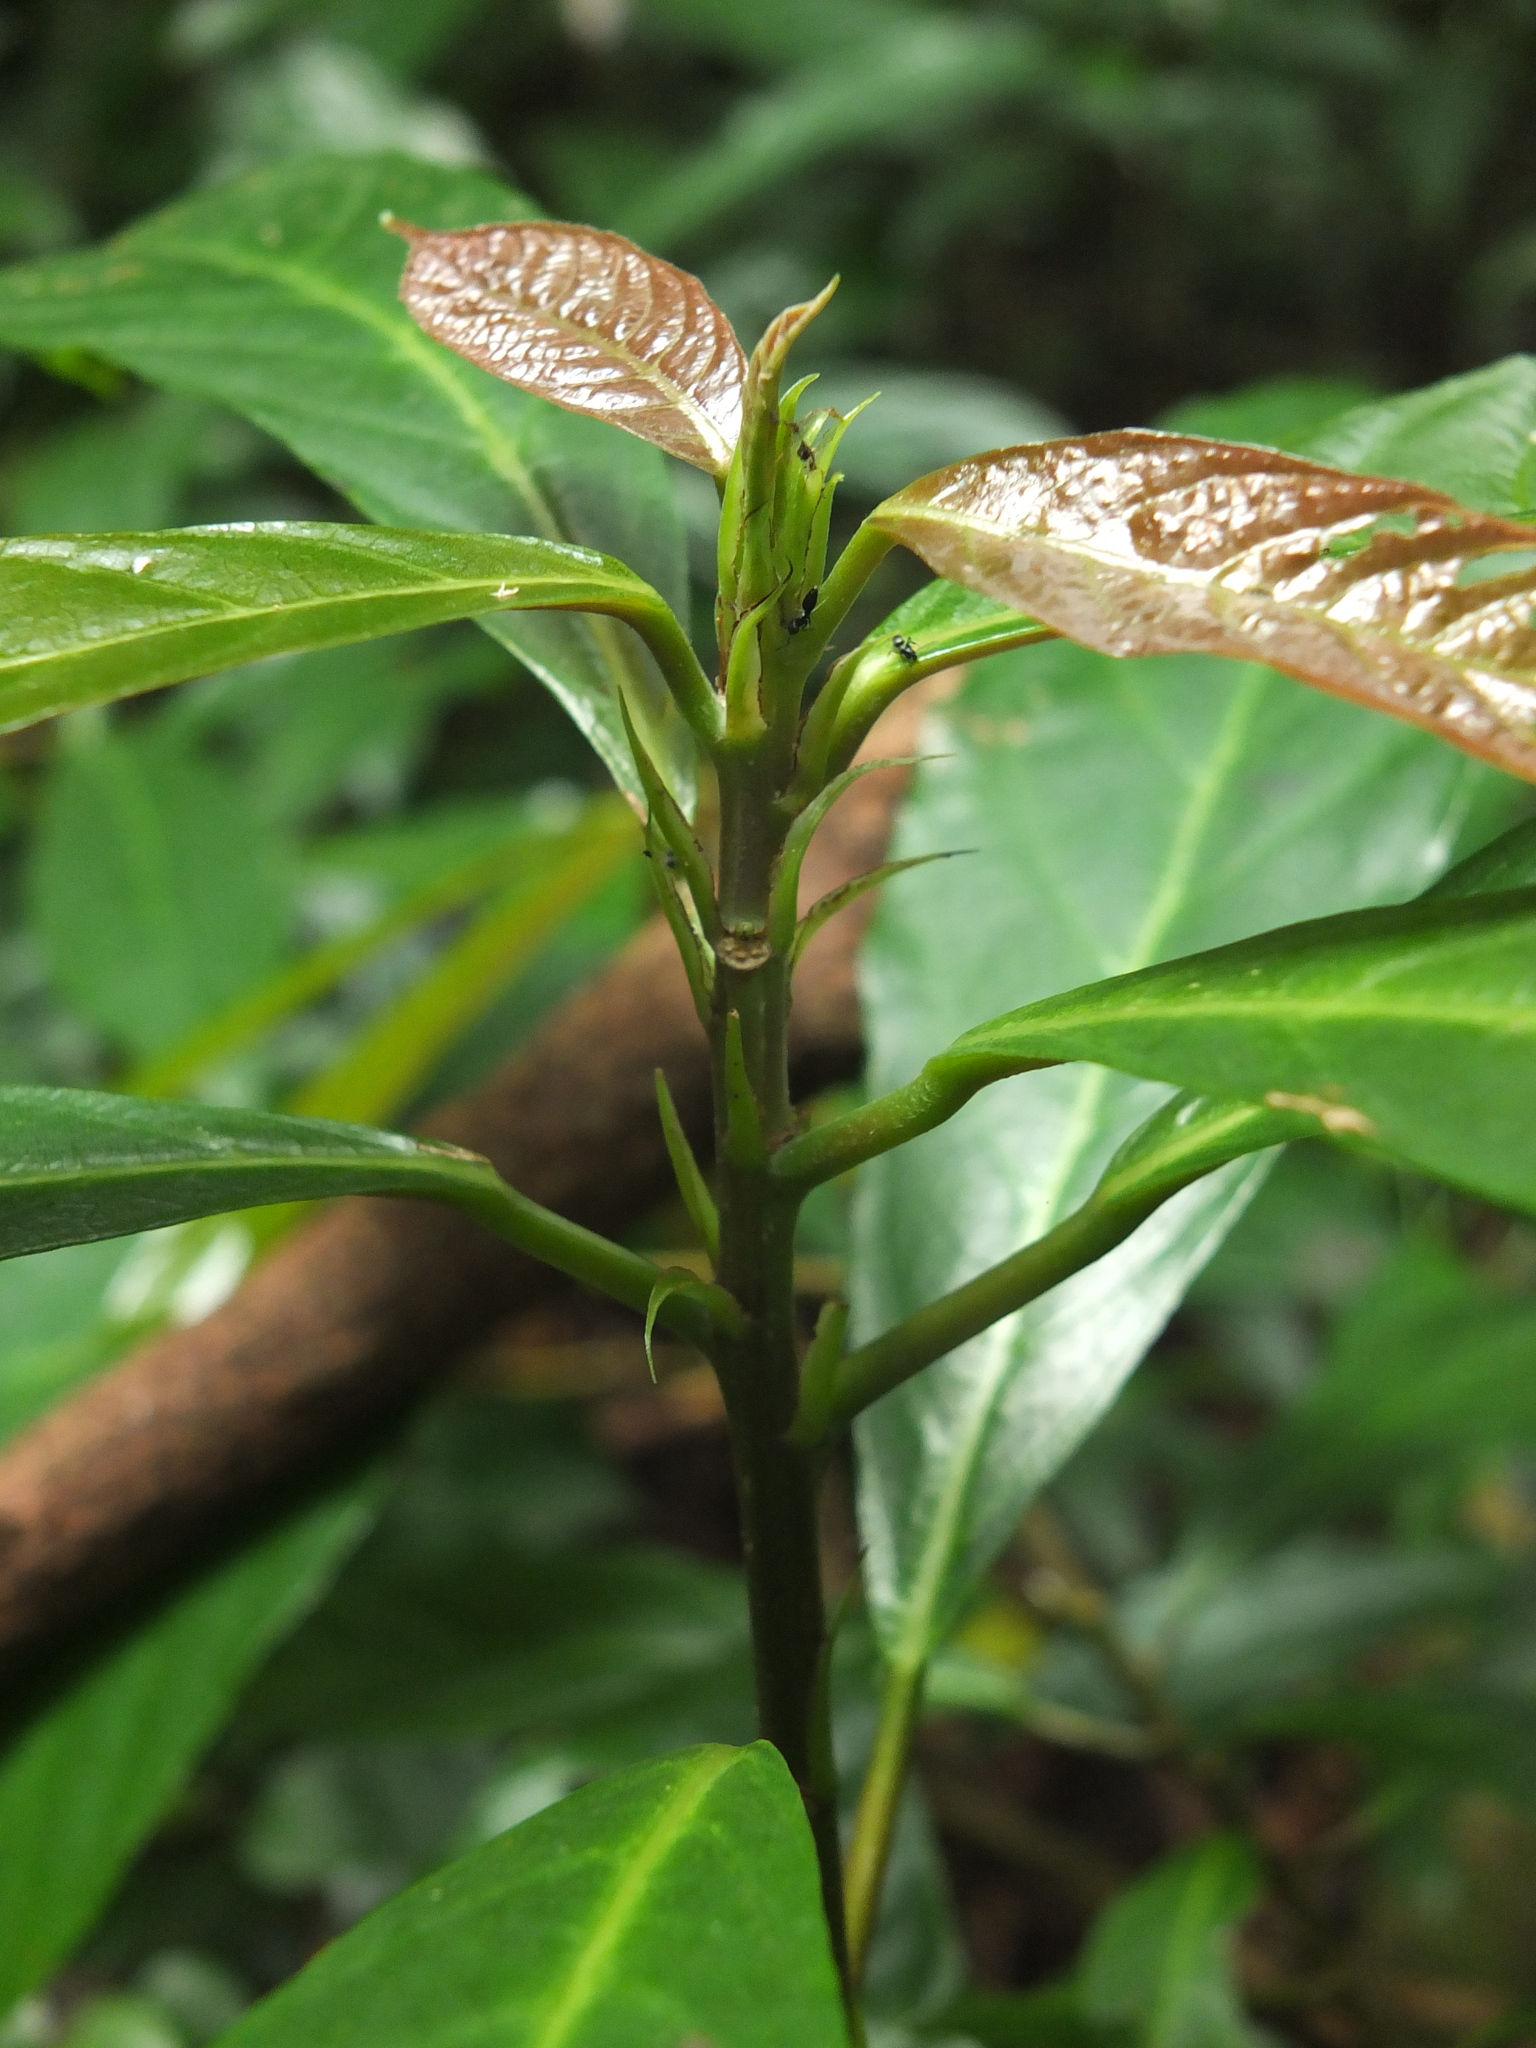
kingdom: Plantae
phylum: Tracheophyta
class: Magnoliopsida
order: Rosales
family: Urticaceae
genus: Oreocnide
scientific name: Oreocnide integrifolia
